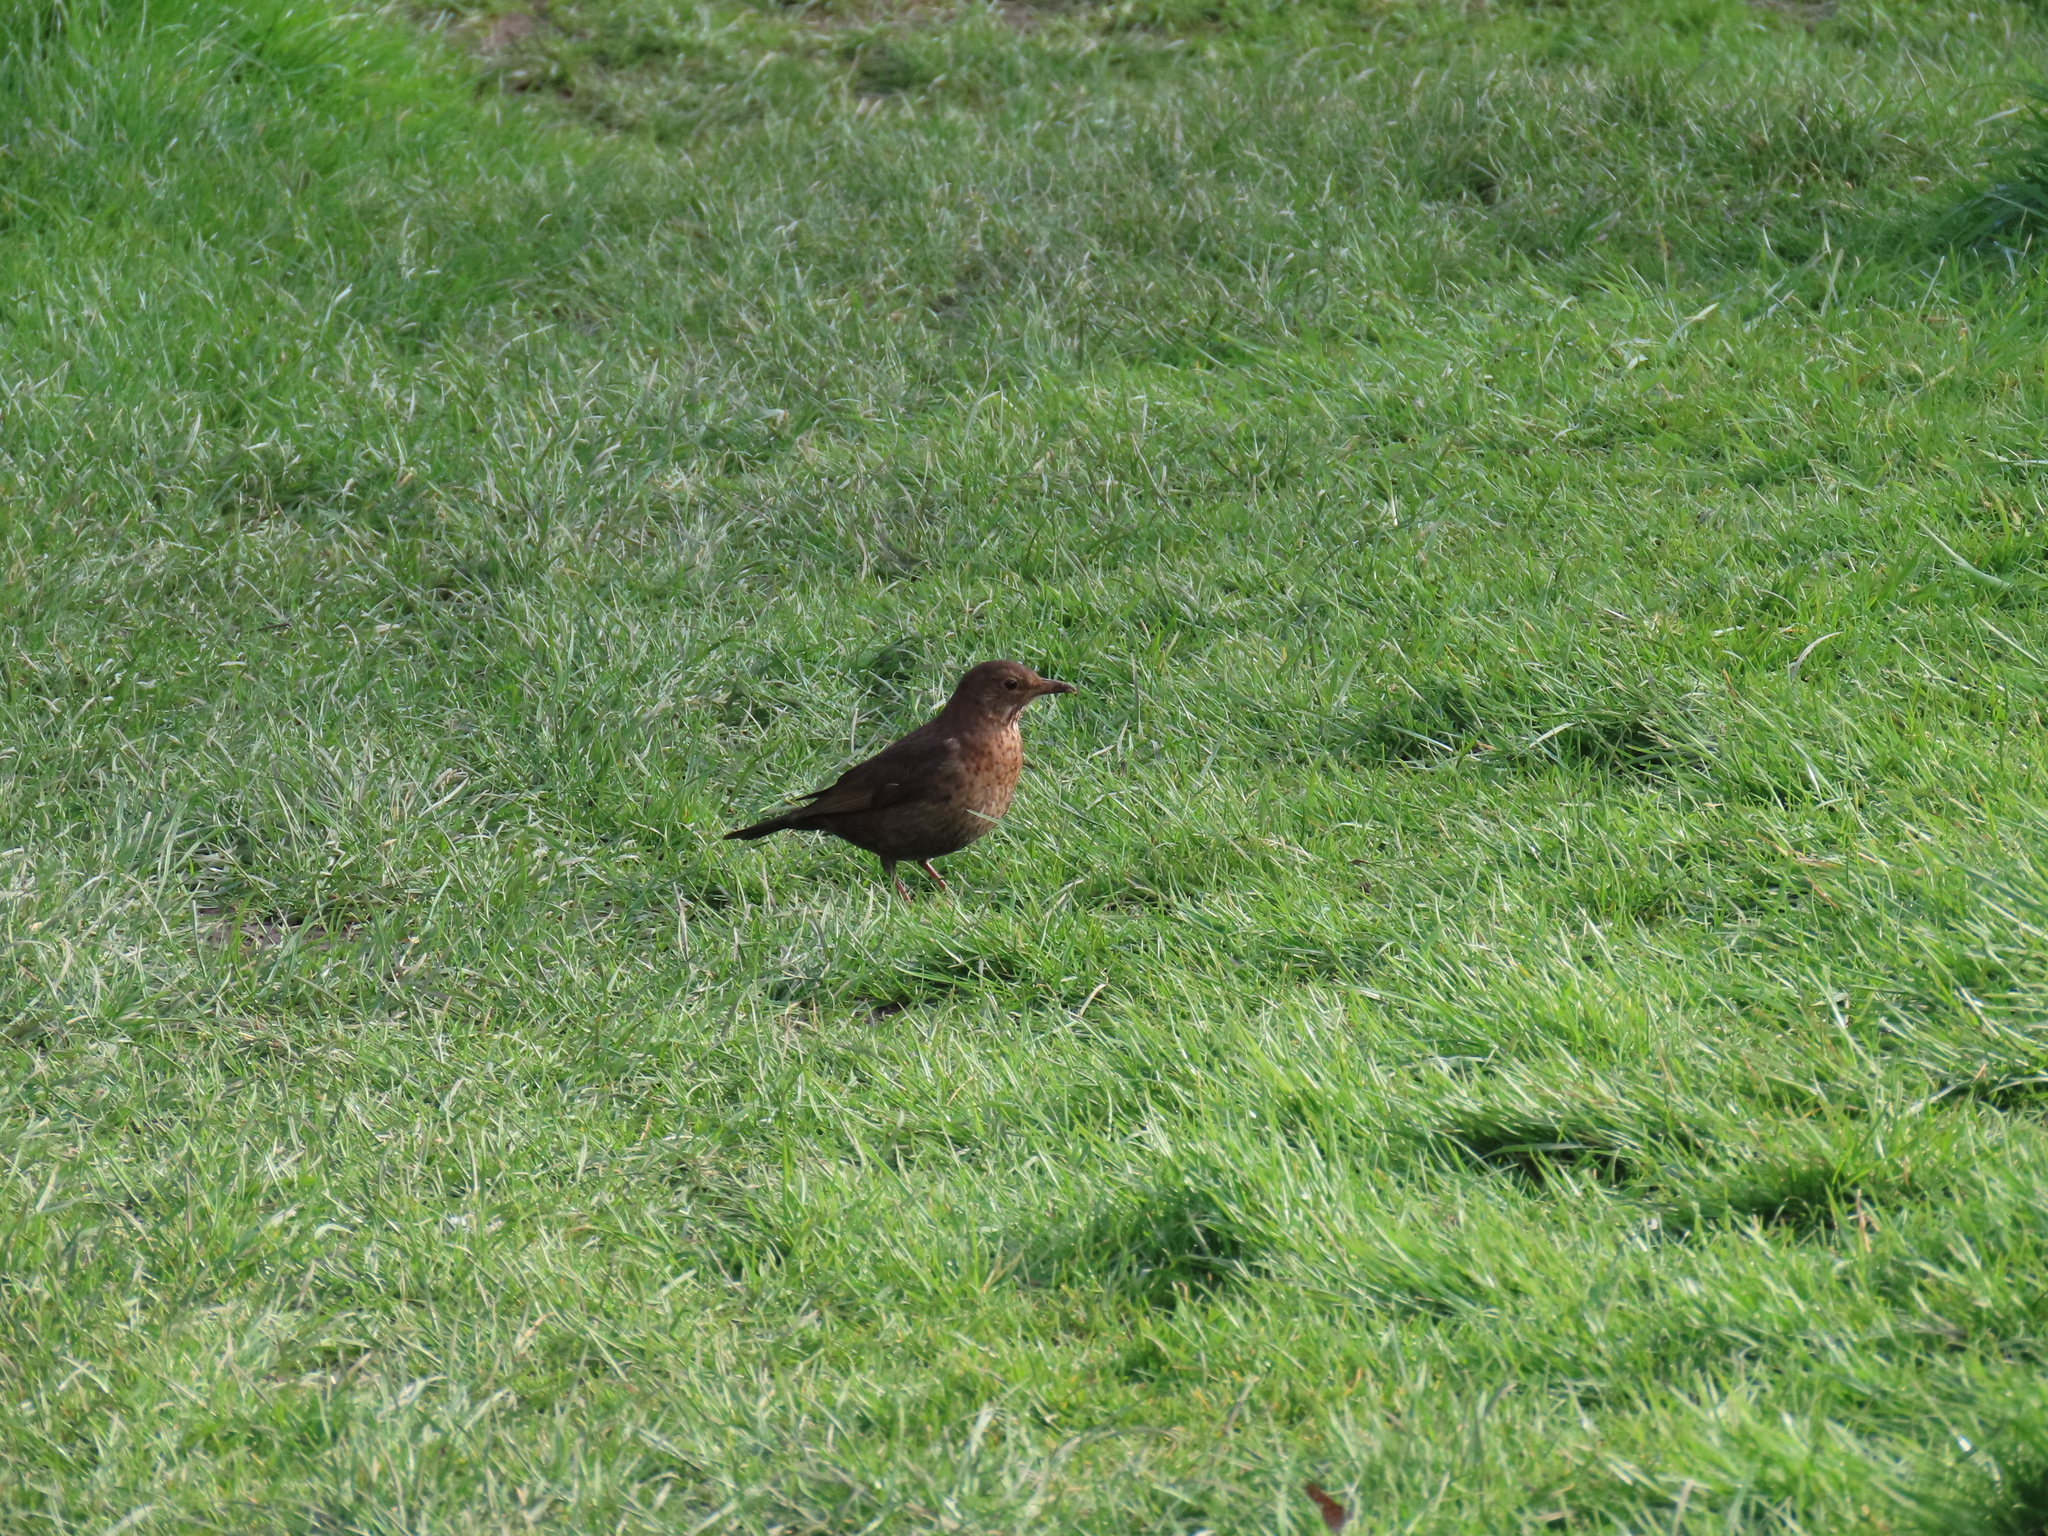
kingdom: Animalia
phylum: Chordata
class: Aves
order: Passeriformes
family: Turdidae
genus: Turdus
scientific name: Turdus merula
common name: Common blackbird
